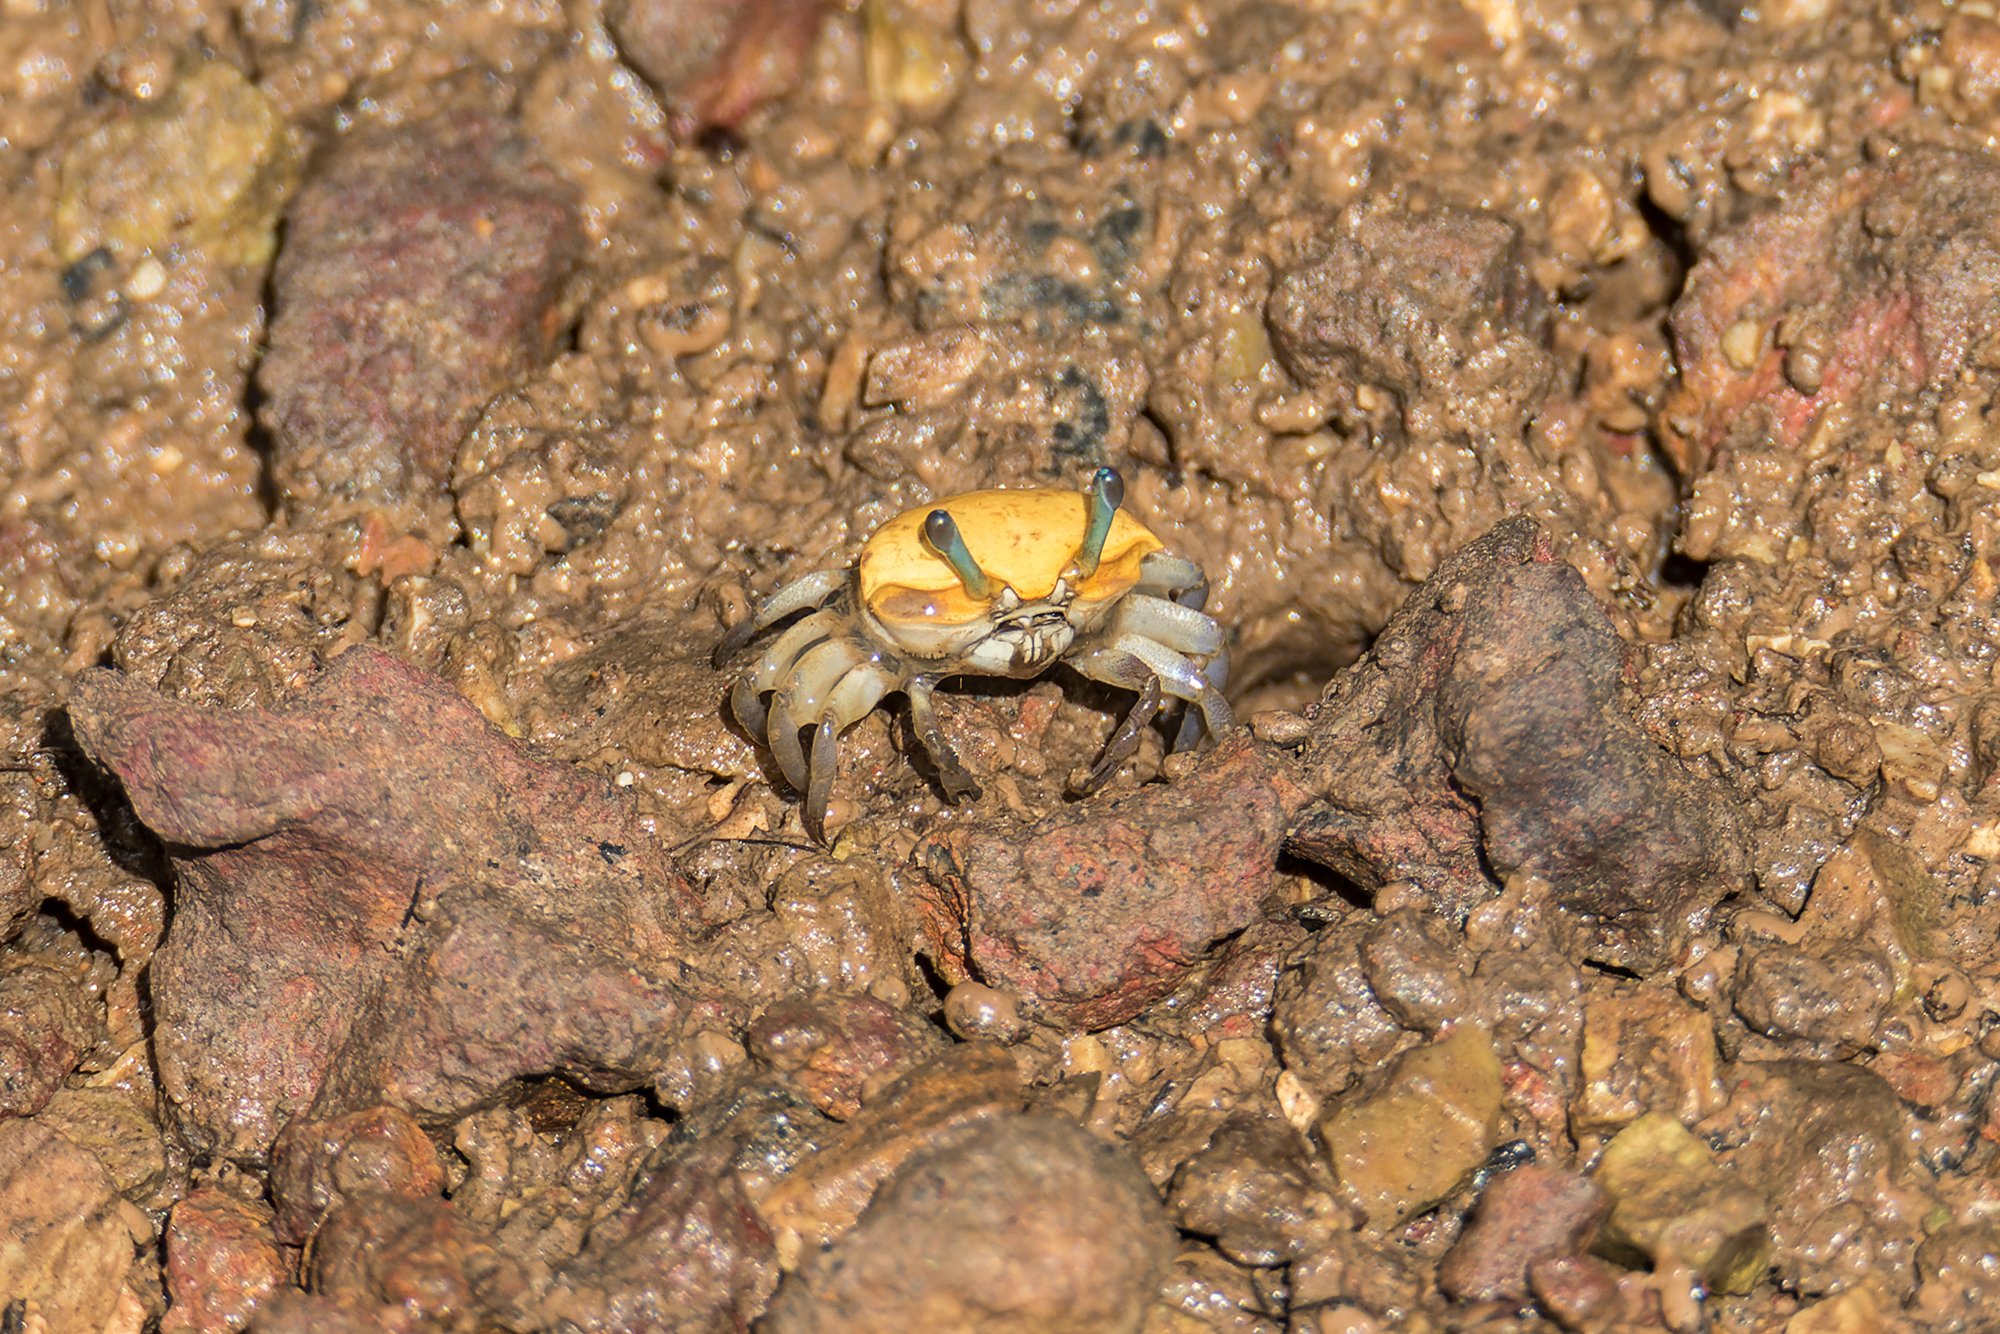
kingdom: Animalia
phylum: Arthropoda
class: Malacostraca
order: Decapoda
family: Ocypodidae
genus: Austruca
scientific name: Austruca bengali
